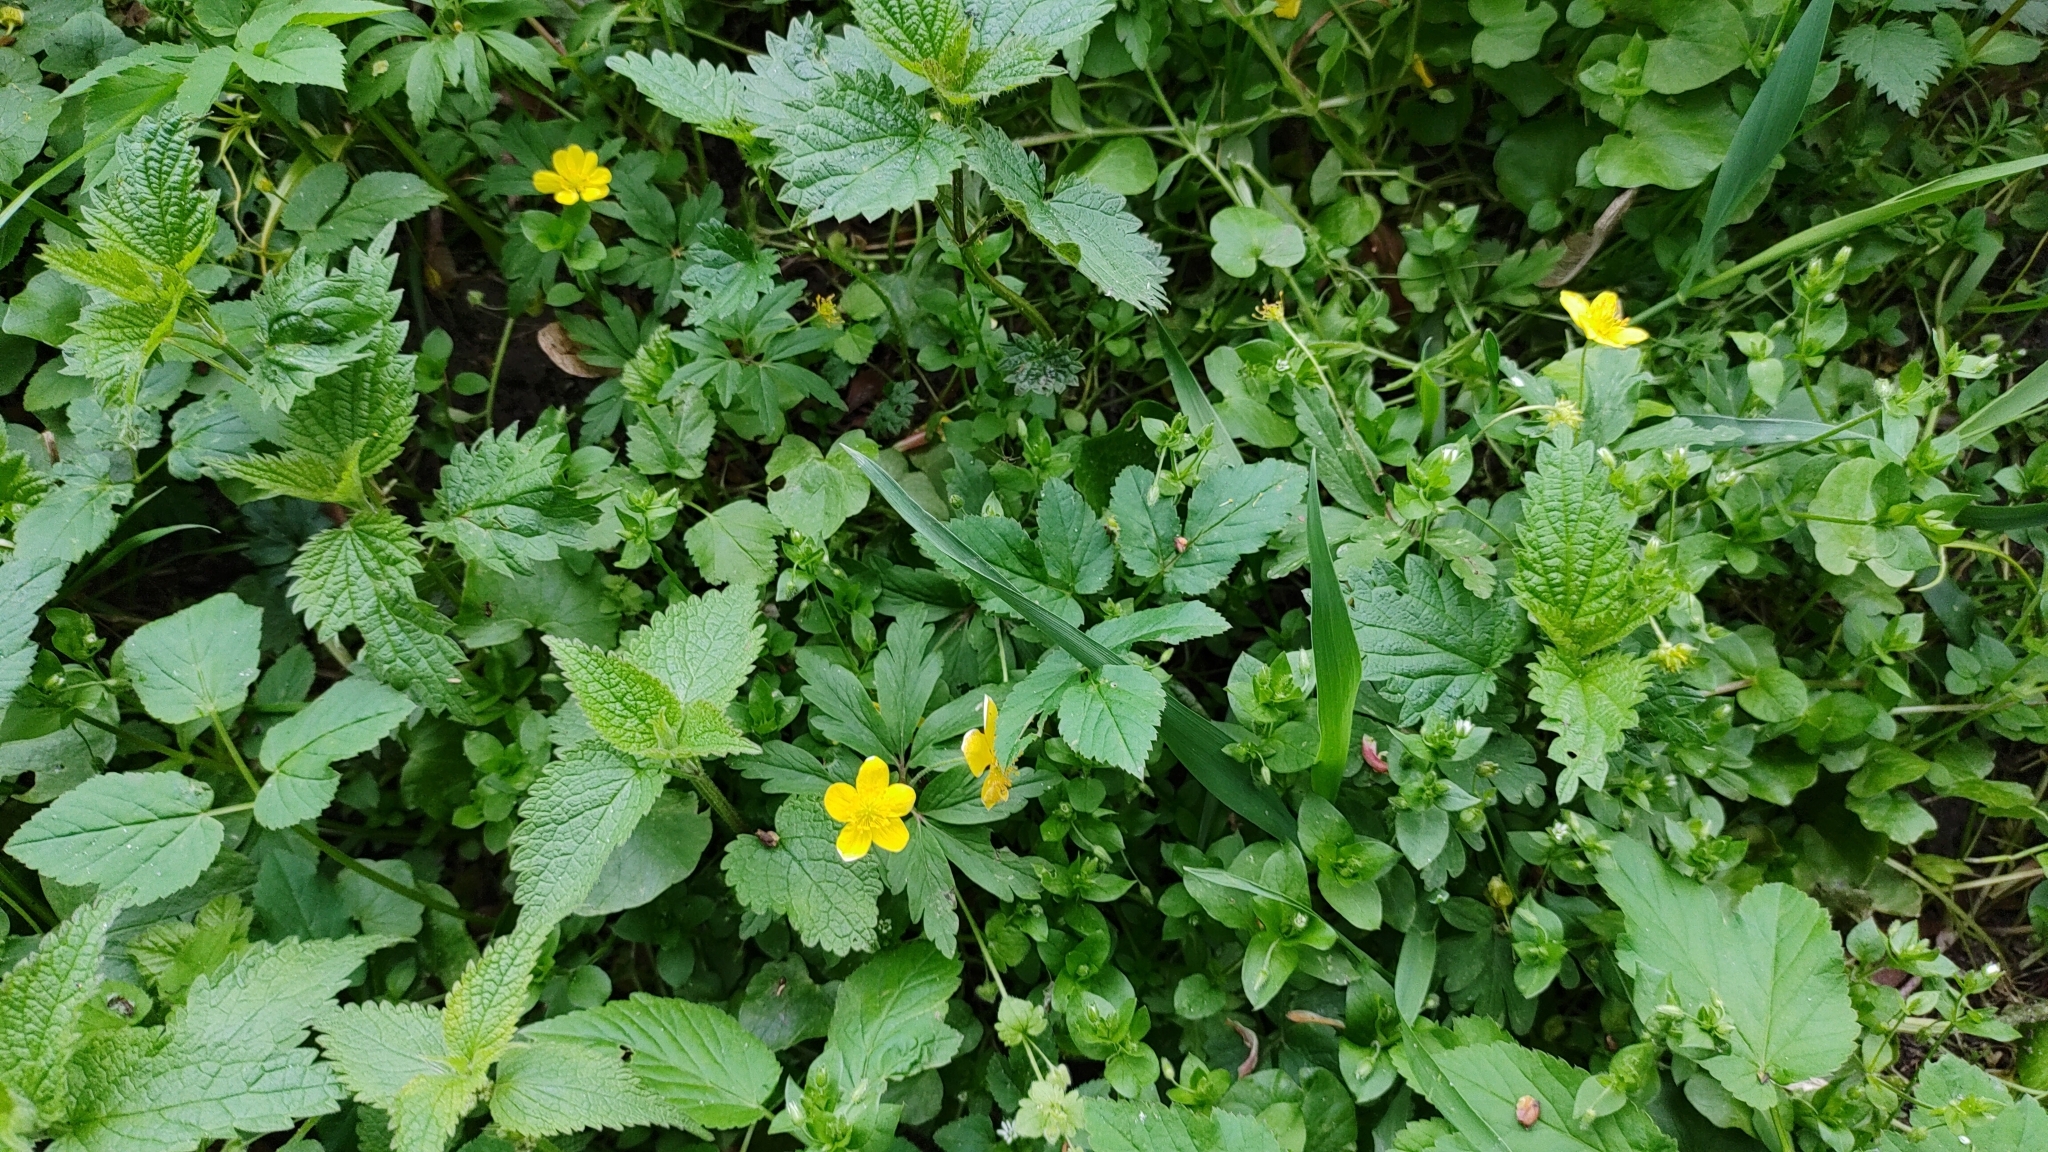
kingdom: Plantae
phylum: Tracheophyta
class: Magnoliopsida
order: Ranunculales
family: Ranunculaceae
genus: Anemone
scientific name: Anemone ranunculoides
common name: Yellow anemone
